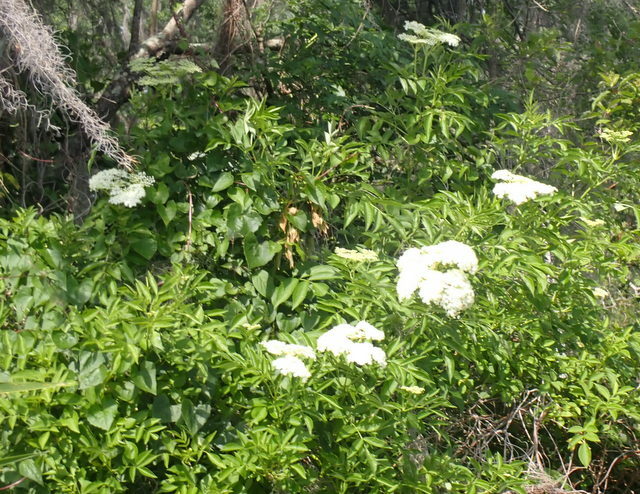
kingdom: Plantae
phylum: Tracheophyta
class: Magnoliopsida
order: Dipsacales
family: Viburnaceae
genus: Sambucus
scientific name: Sambucus canadensis
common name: American elder
